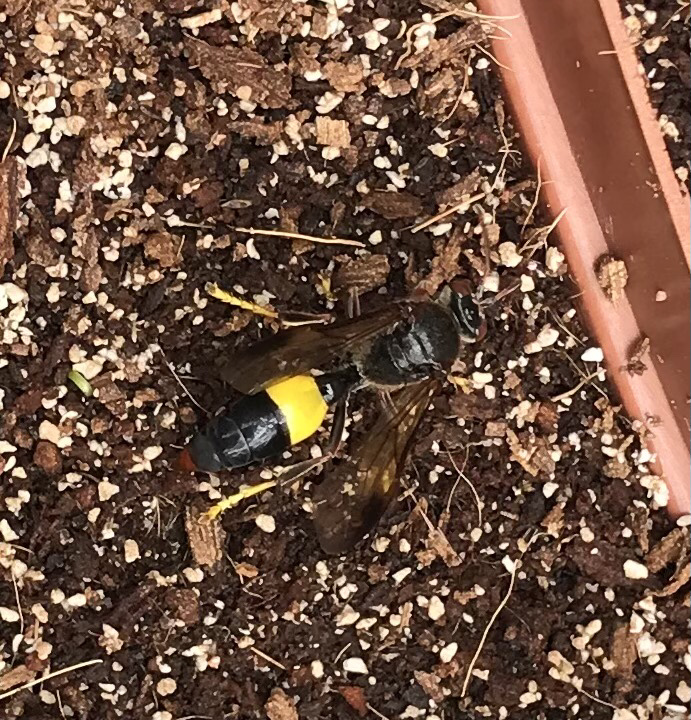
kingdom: Animalia
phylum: Arthropoda
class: Insecta
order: Hymenoptera
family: Crabronidae
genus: Gorytes
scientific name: Gorytes natalensis
